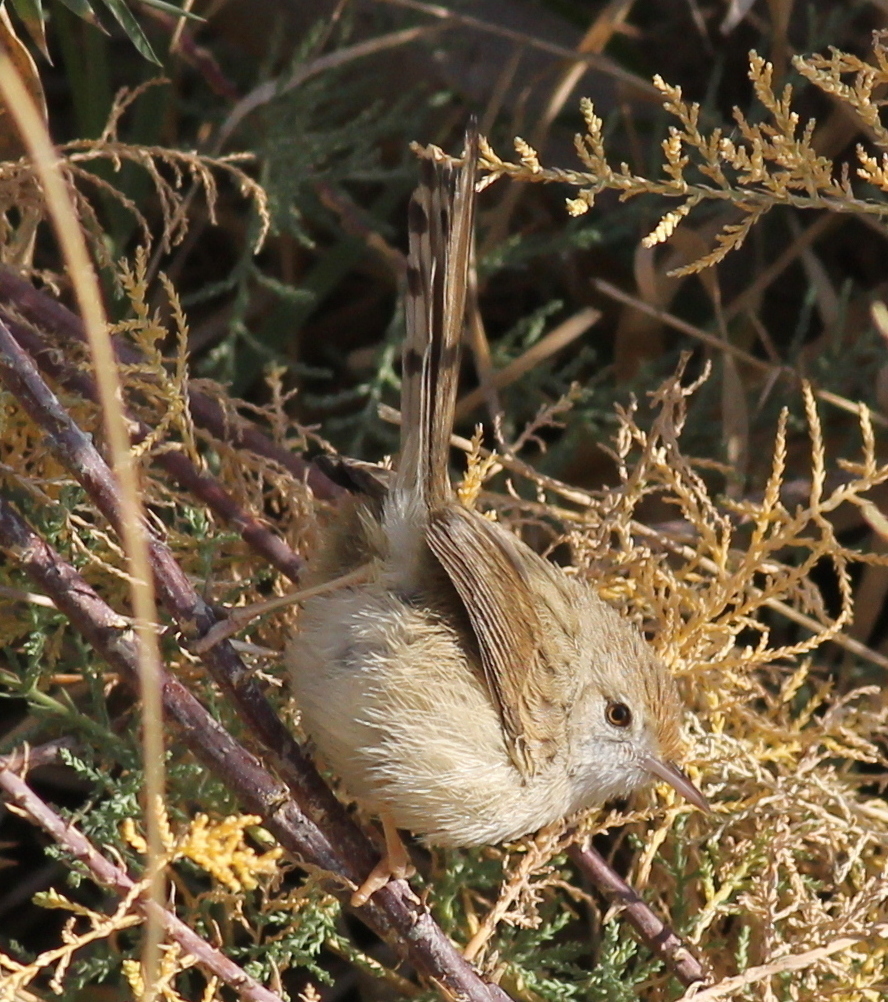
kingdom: Animalia
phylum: Chordata
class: Aves
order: Passeriformes
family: Cisticolidae
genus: Prinia
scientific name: Prinia gracilis
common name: Graceful prinia
